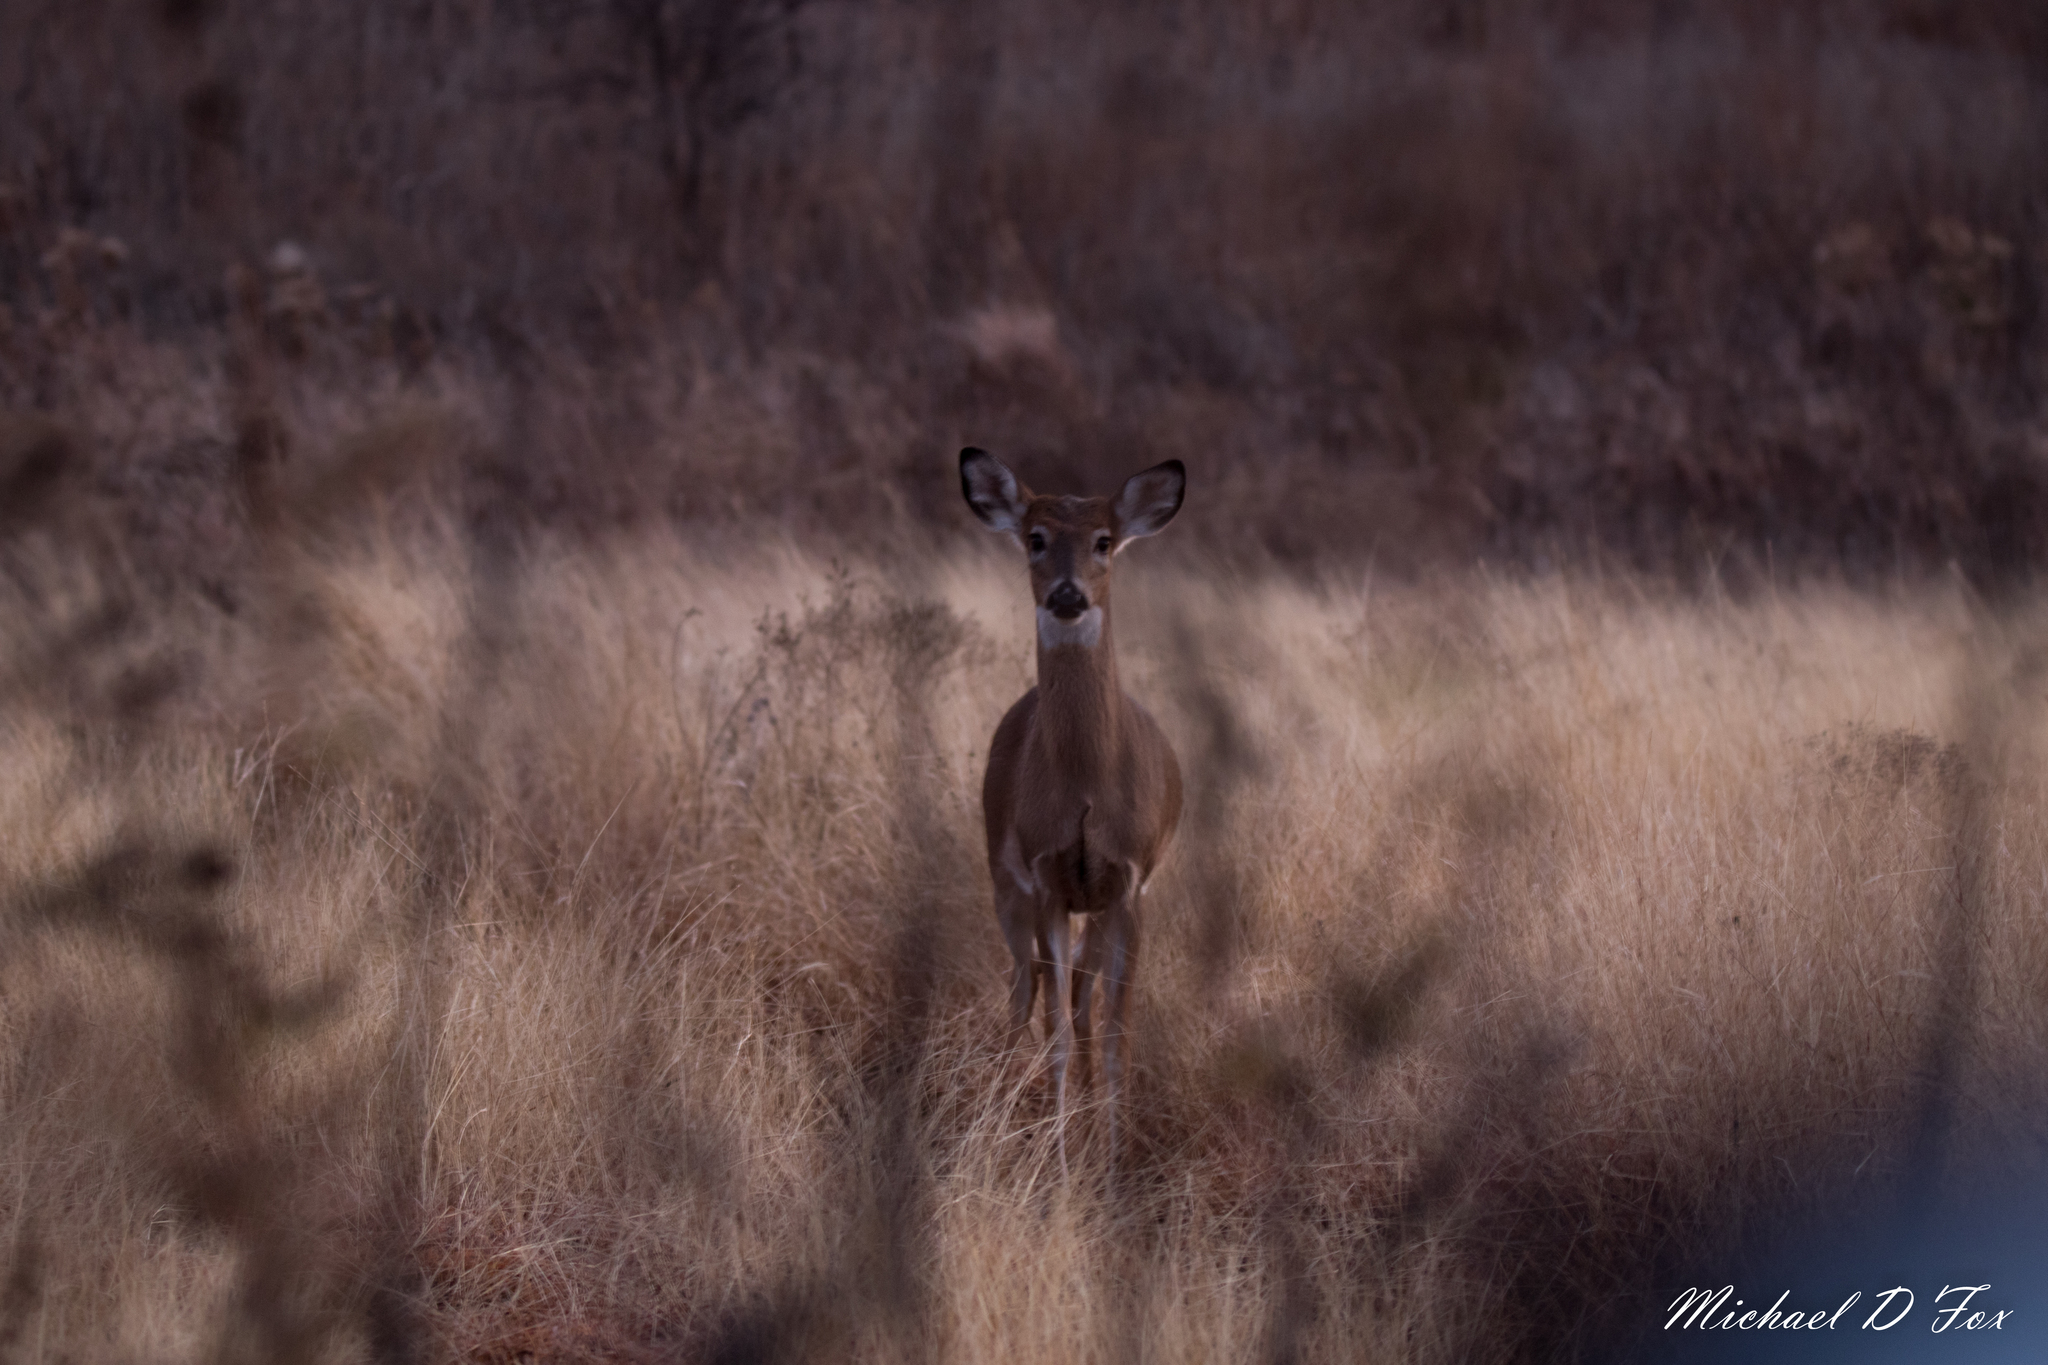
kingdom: Animalia
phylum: Chordata
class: Mammalia
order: Artiodactyla
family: Cervidae
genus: Odocoileus
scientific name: Odocoileus virginianus
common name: White-tailed deer
